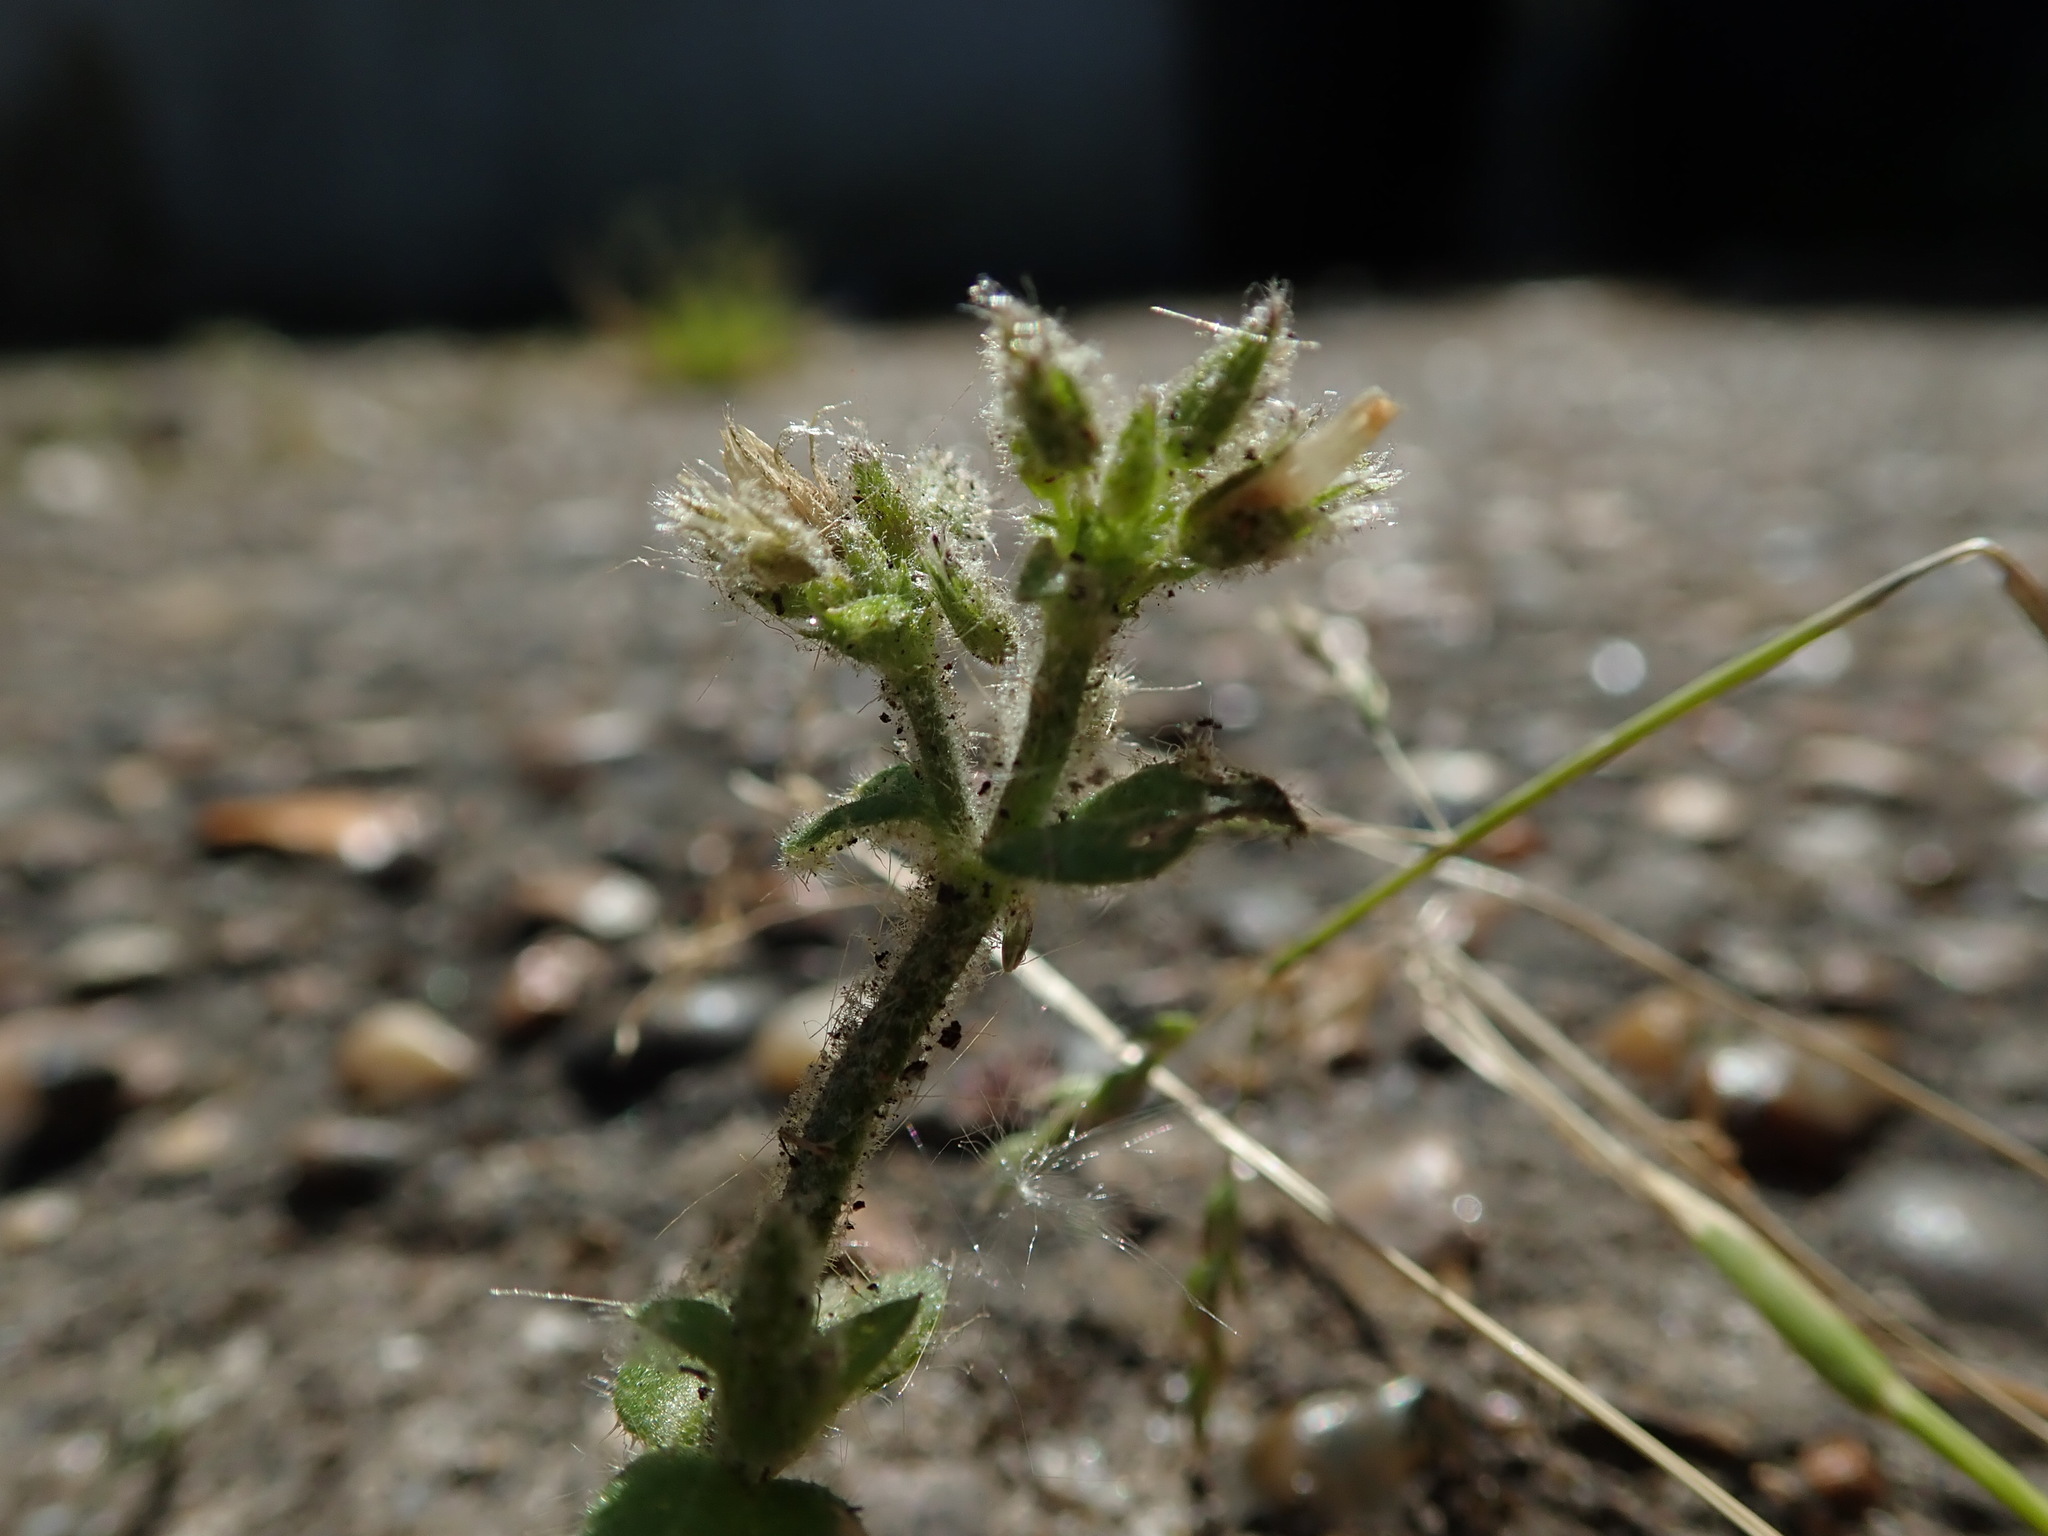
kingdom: Plantae
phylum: Tracheophyta
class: Magnoliopsida
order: Caryophyllales
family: Caryophyllaceae
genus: Cerastium
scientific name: Cerastium glomeratum
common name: Sticky chickweed
